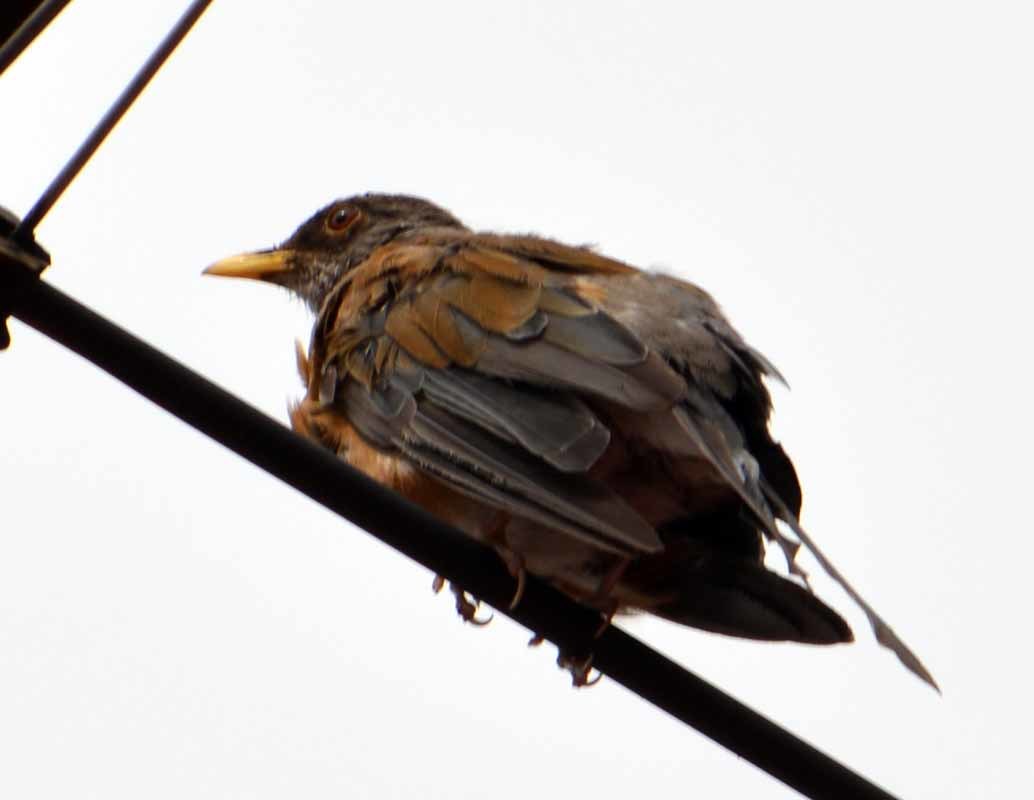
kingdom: Animalia
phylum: Chordata
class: Aves
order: Passeriformes
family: Turdidae
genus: Turdus
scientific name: Turdus rufopalliatus
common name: Rufous-backed robin
